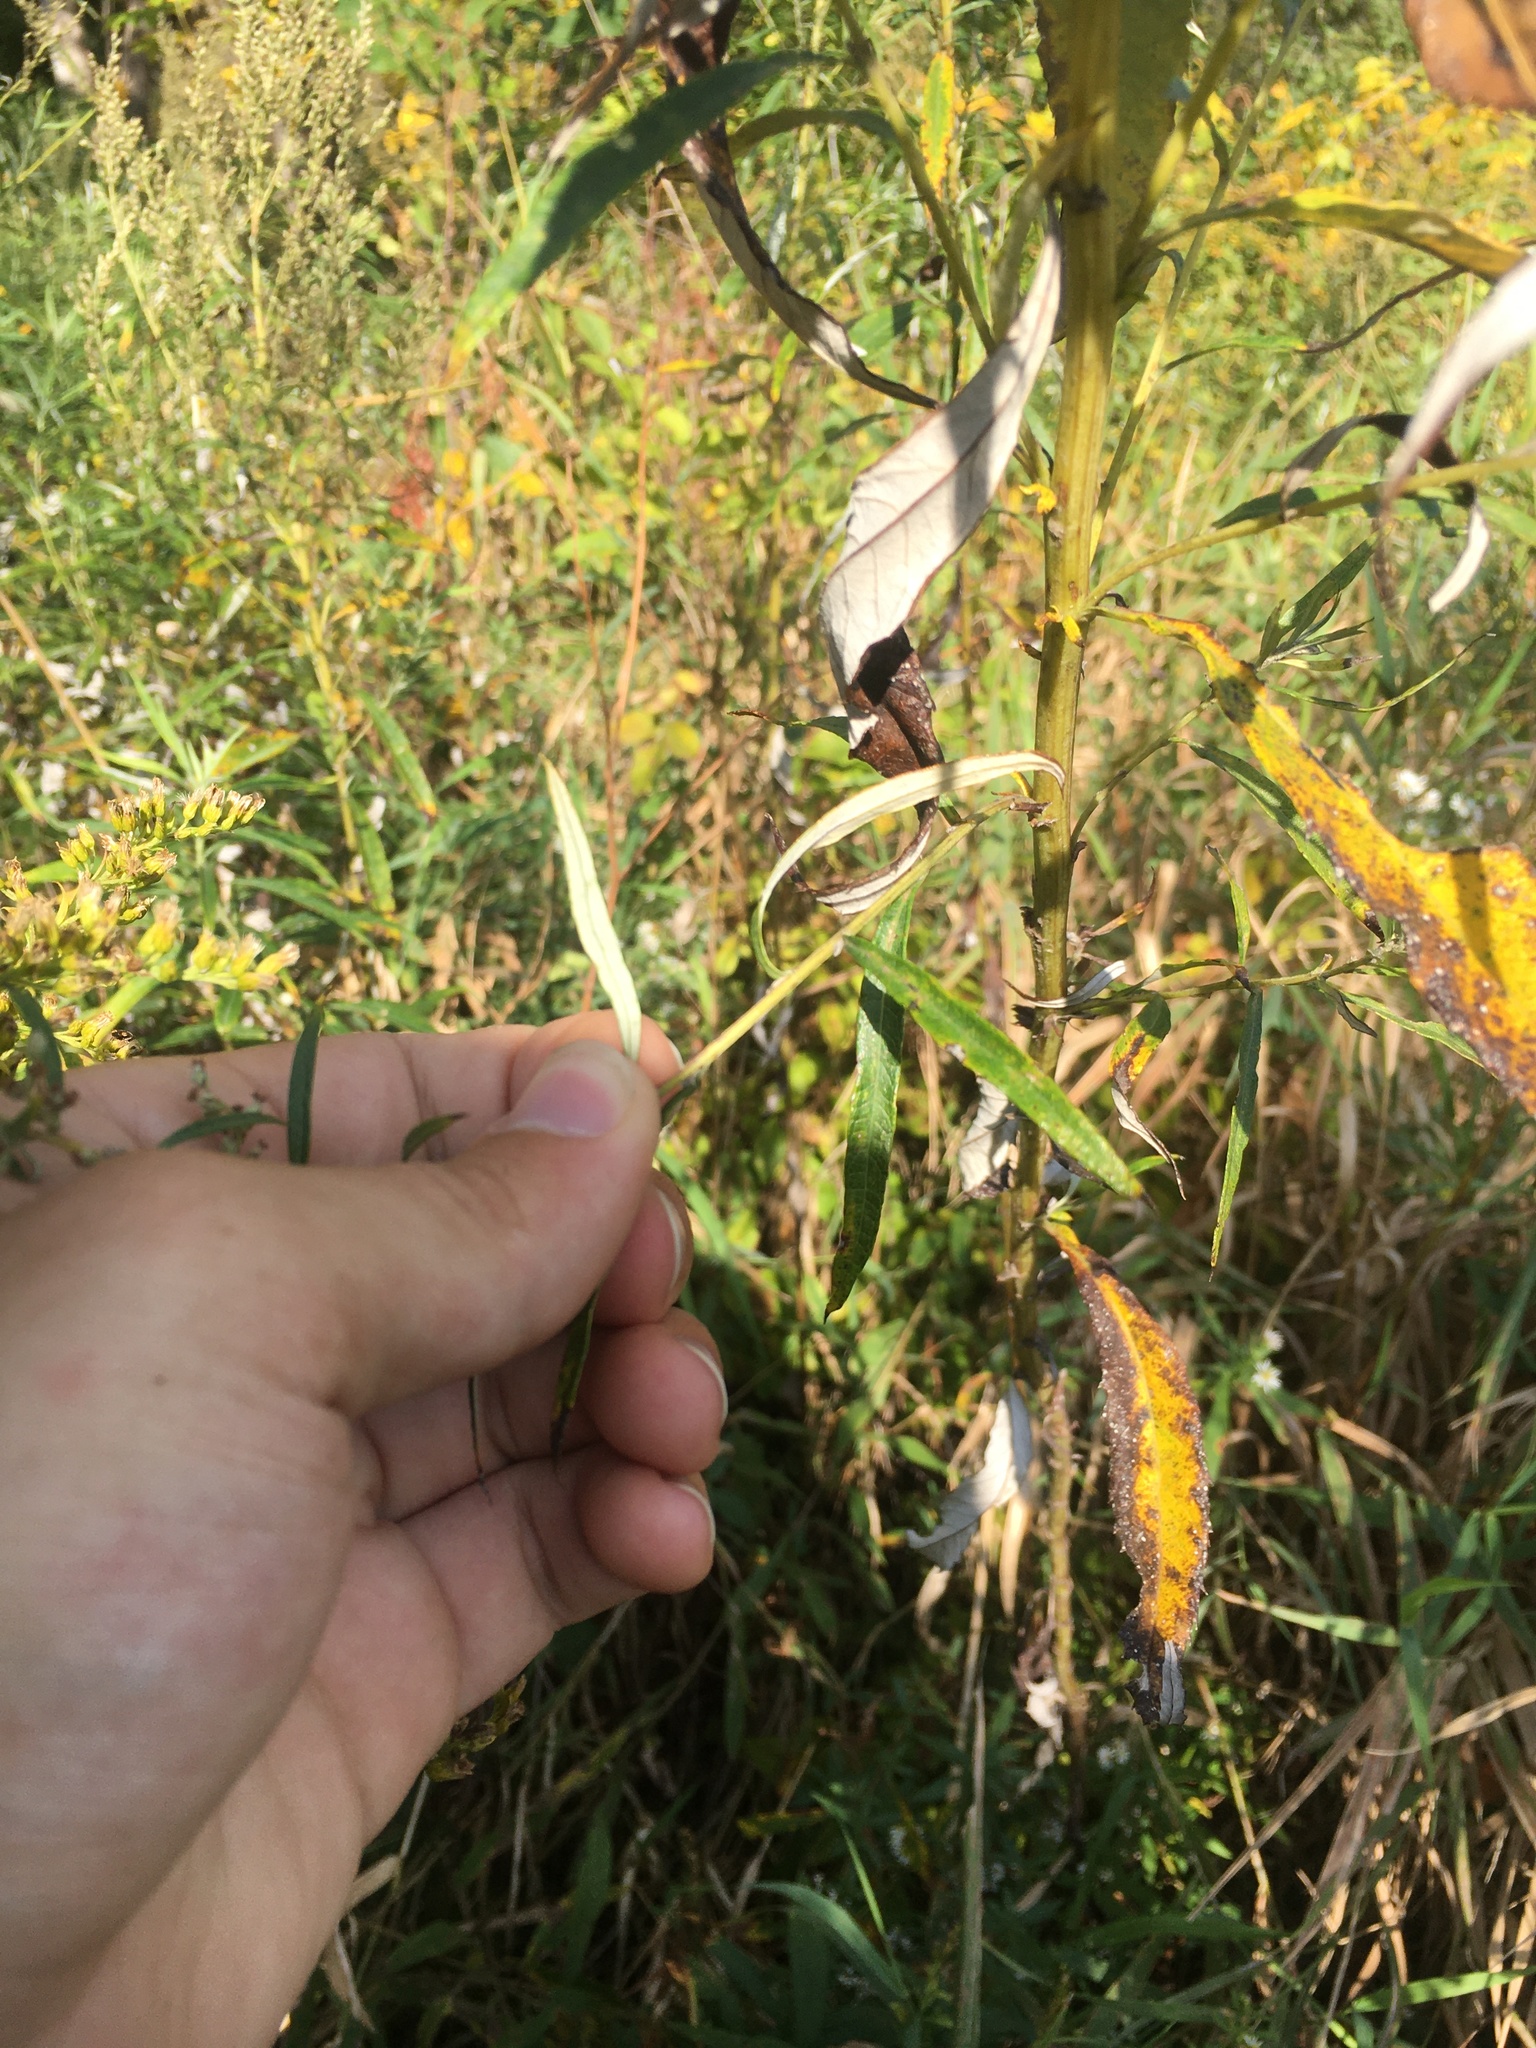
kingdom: Plantae
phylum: Tracheophyta
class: Magnoliopsida
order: Asterales
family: Asteraceae
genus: Artemisia
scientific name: Artemisia serrata
